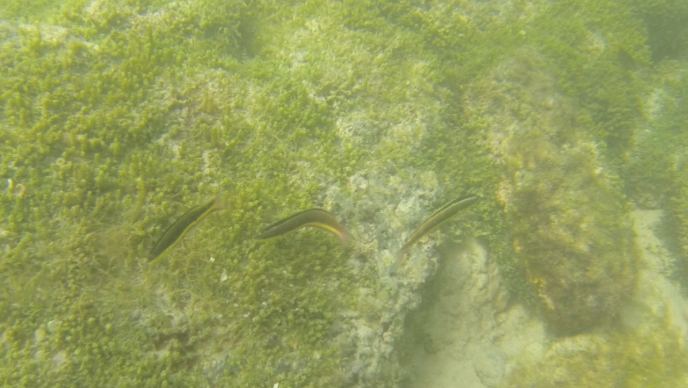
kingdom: Animalia
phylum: Chordata
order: Perciformes
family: Labridae
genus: Thalassoma
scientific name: Thalassoma lucasanum
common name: Cortez rainbow wrasse
